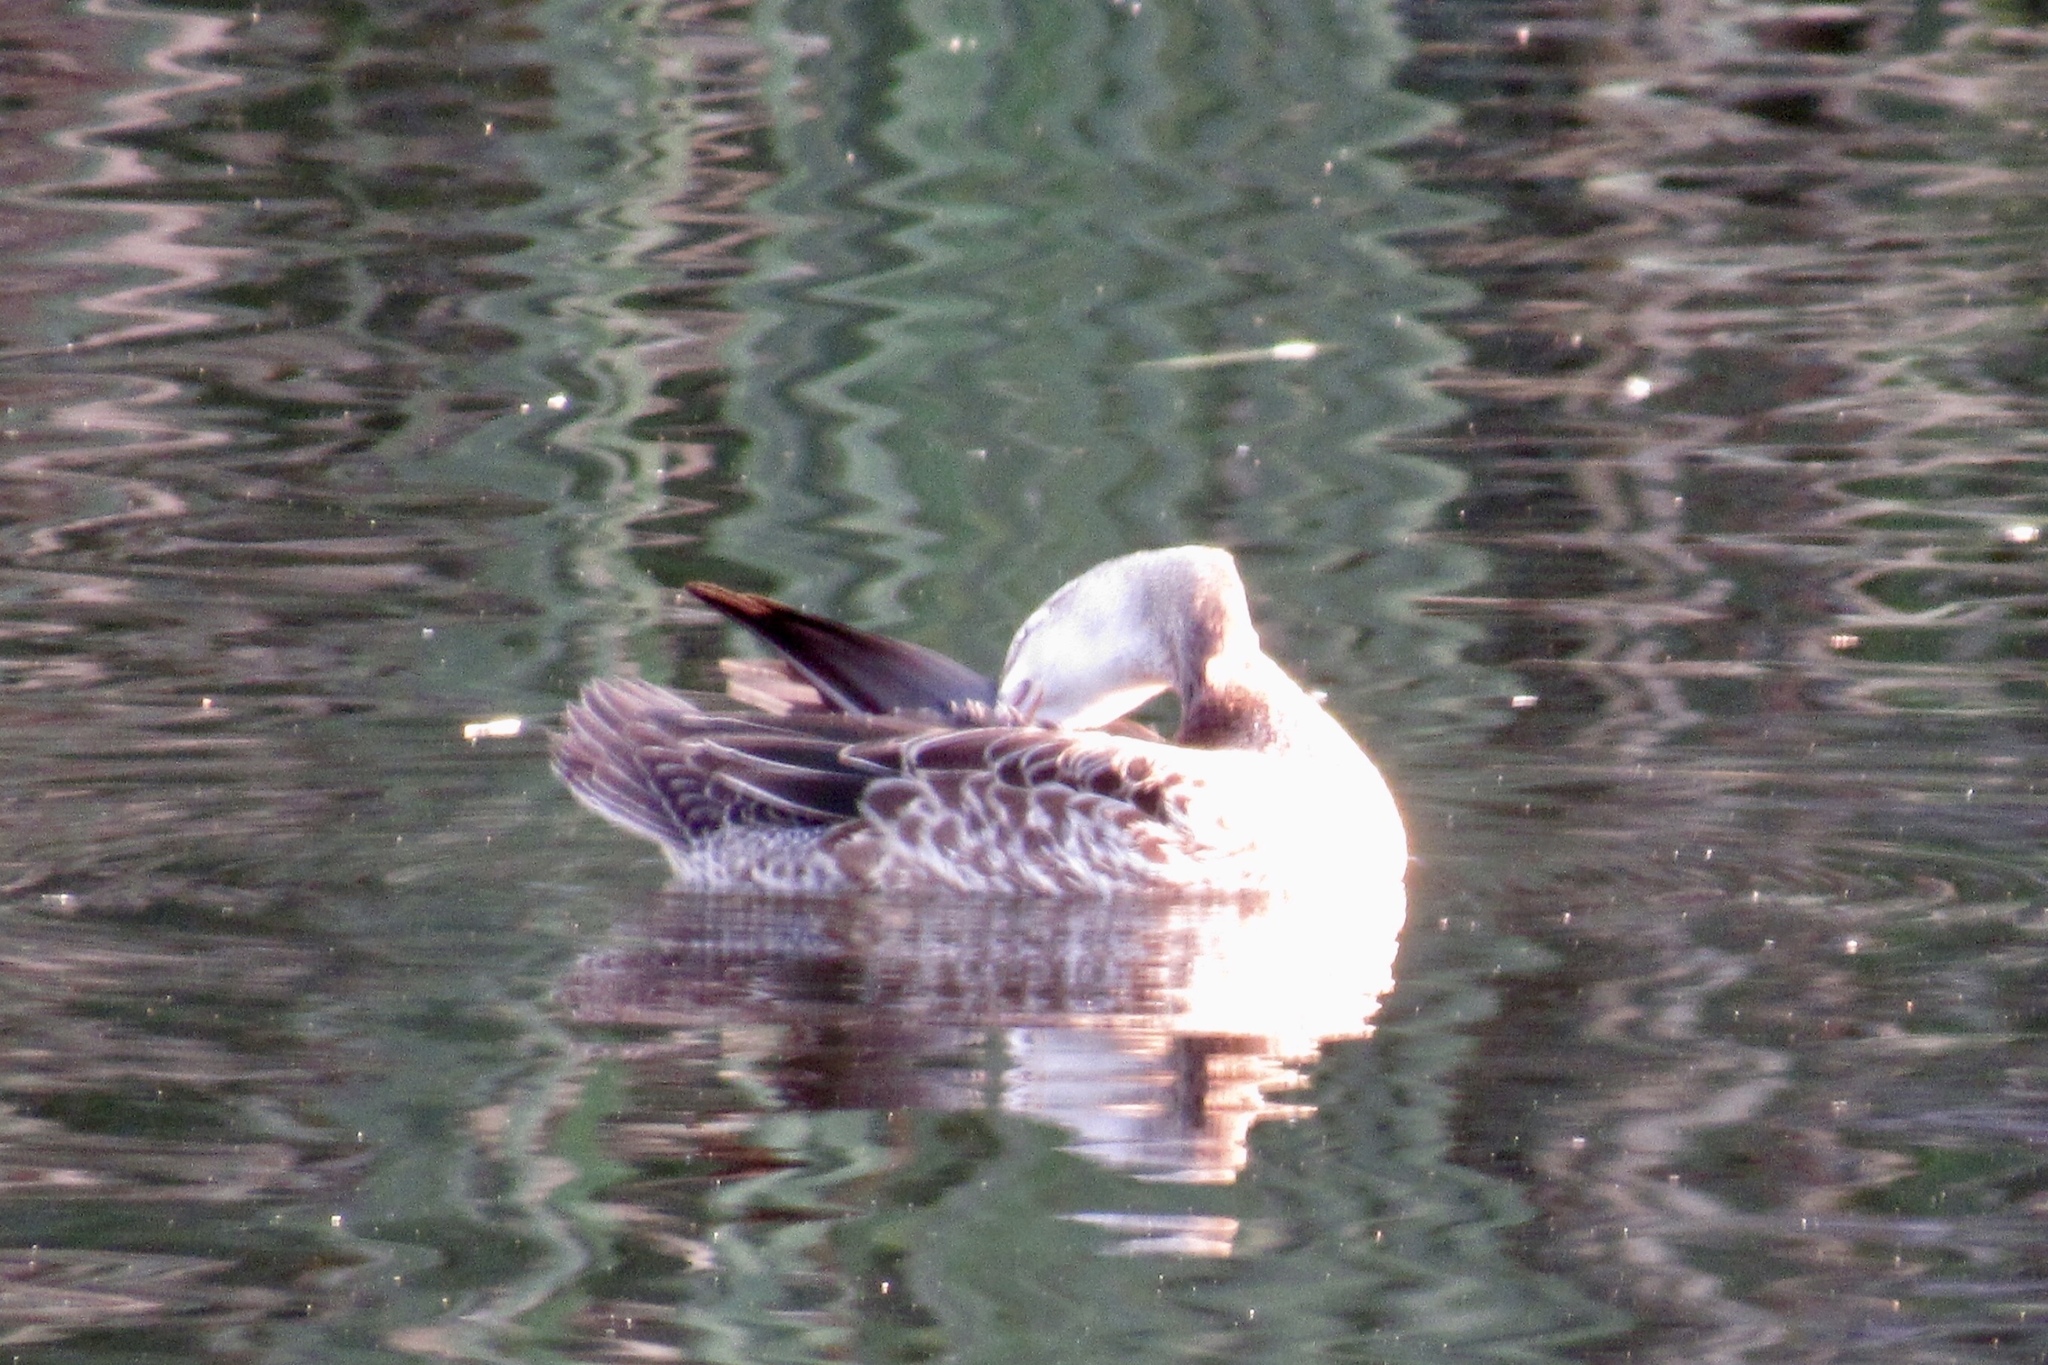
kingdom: Animalia
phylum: Chordata
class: Aves
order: Anseriformes
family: Anatidae
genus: Spatula
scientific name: Spatula discors
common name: Blue-winged teal
